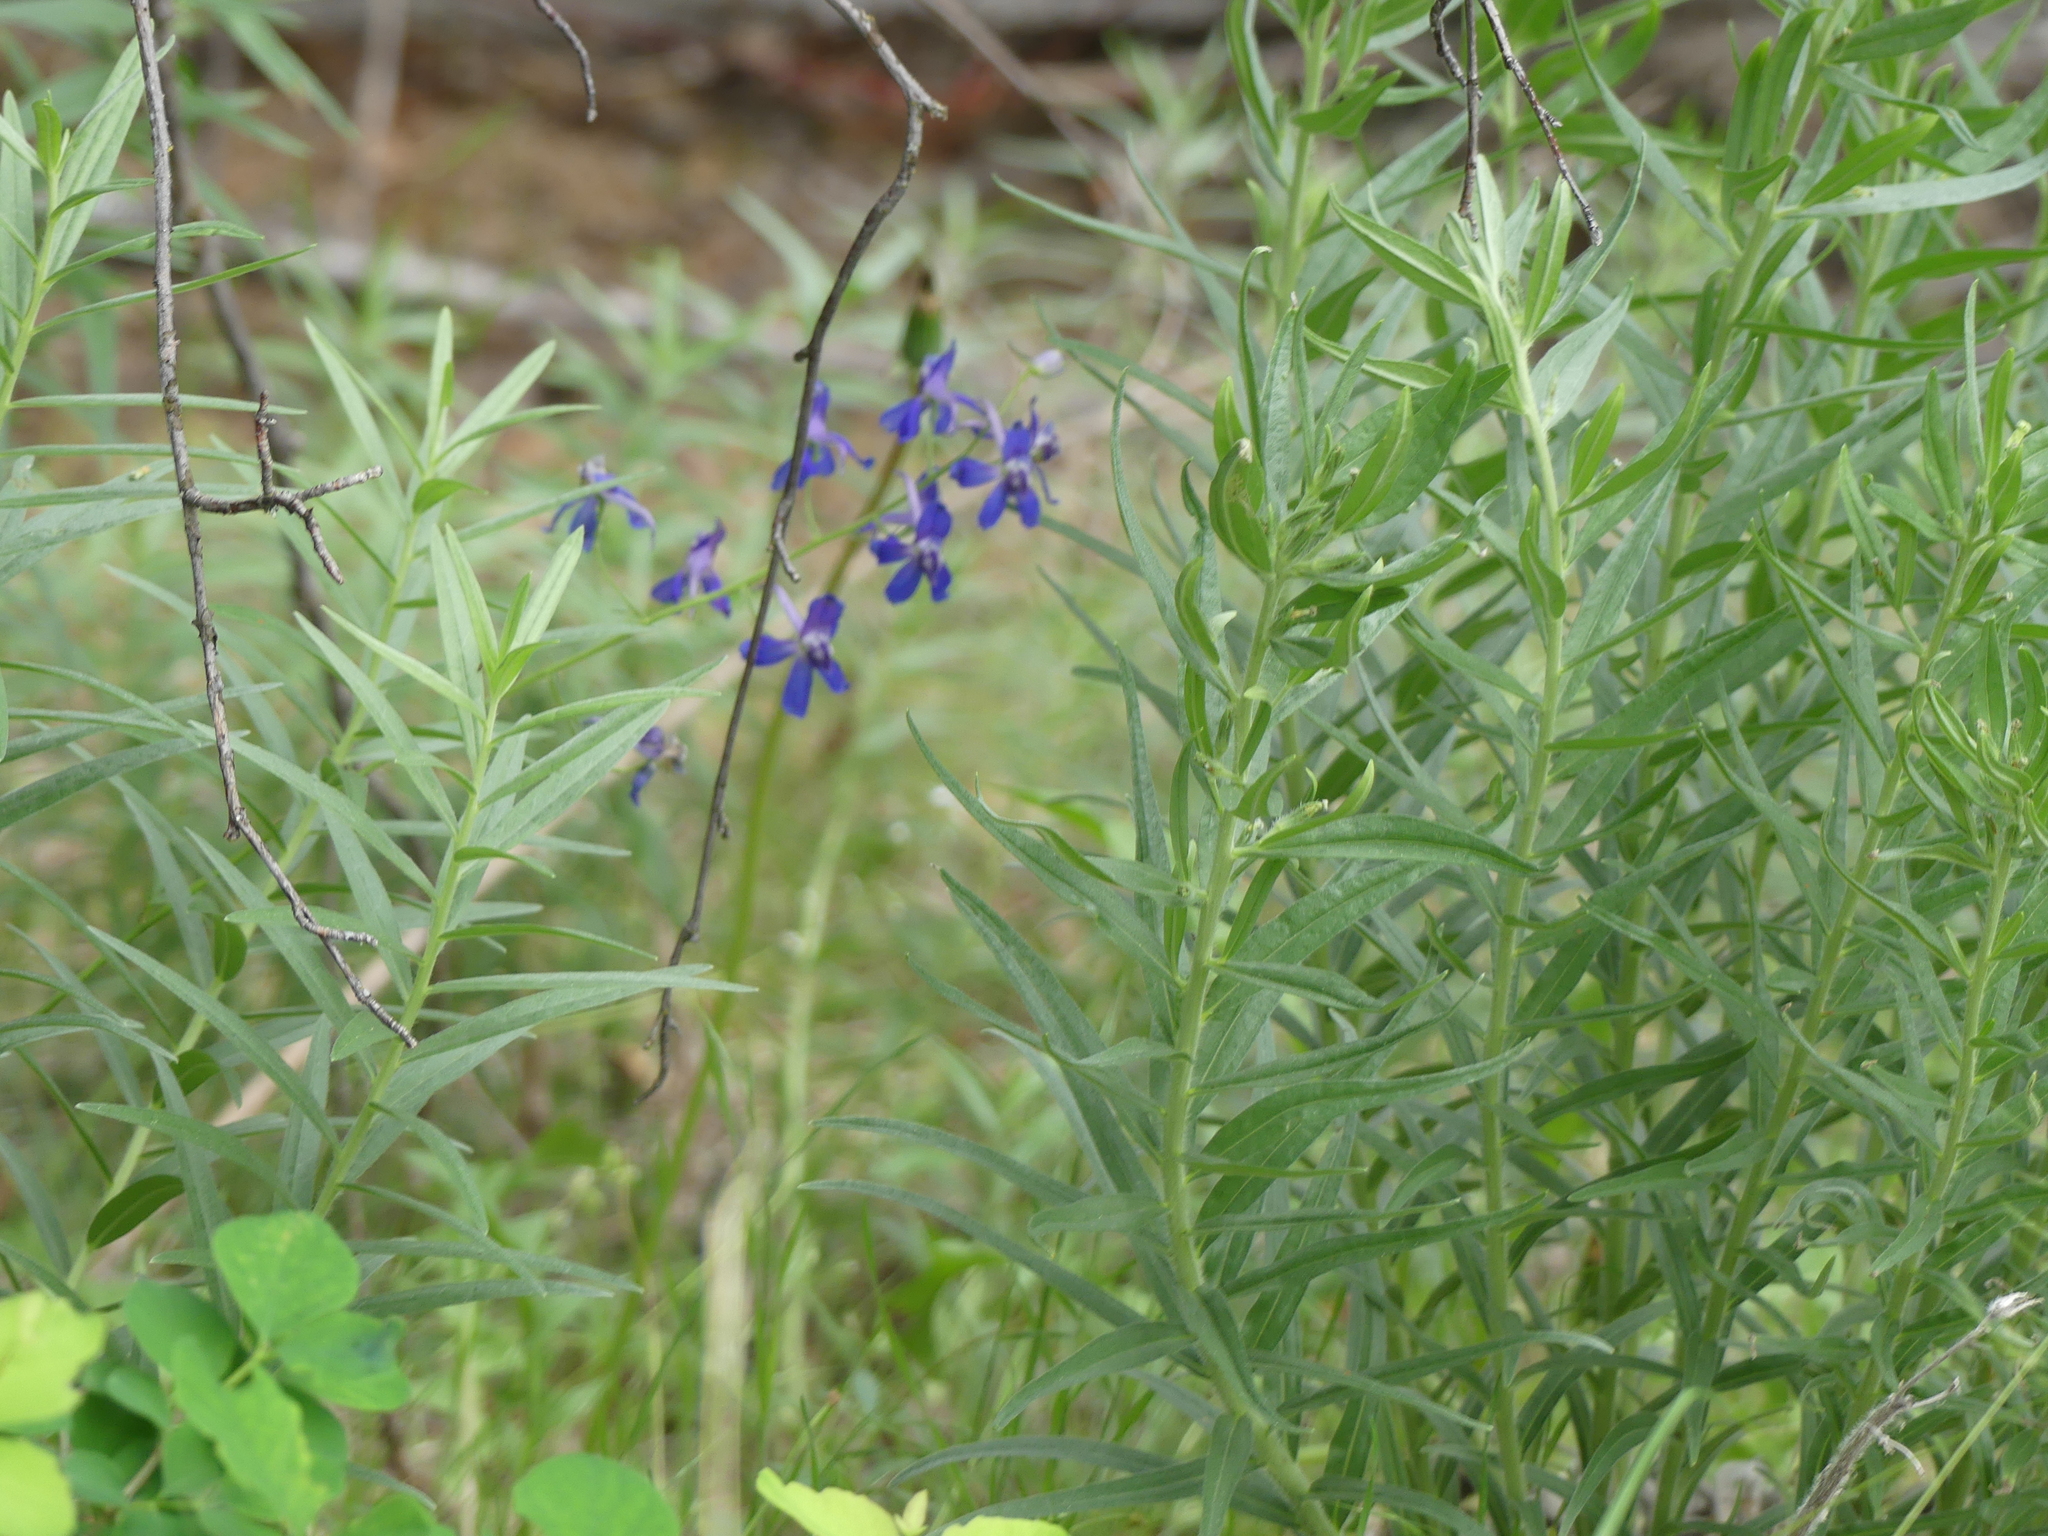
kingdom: Plantae
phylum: Tracheophyta
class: Magnoliopsida
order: Ranunculales
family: Ranunculaceae
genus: Delphinium
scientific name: Delphinium nuttallianum
